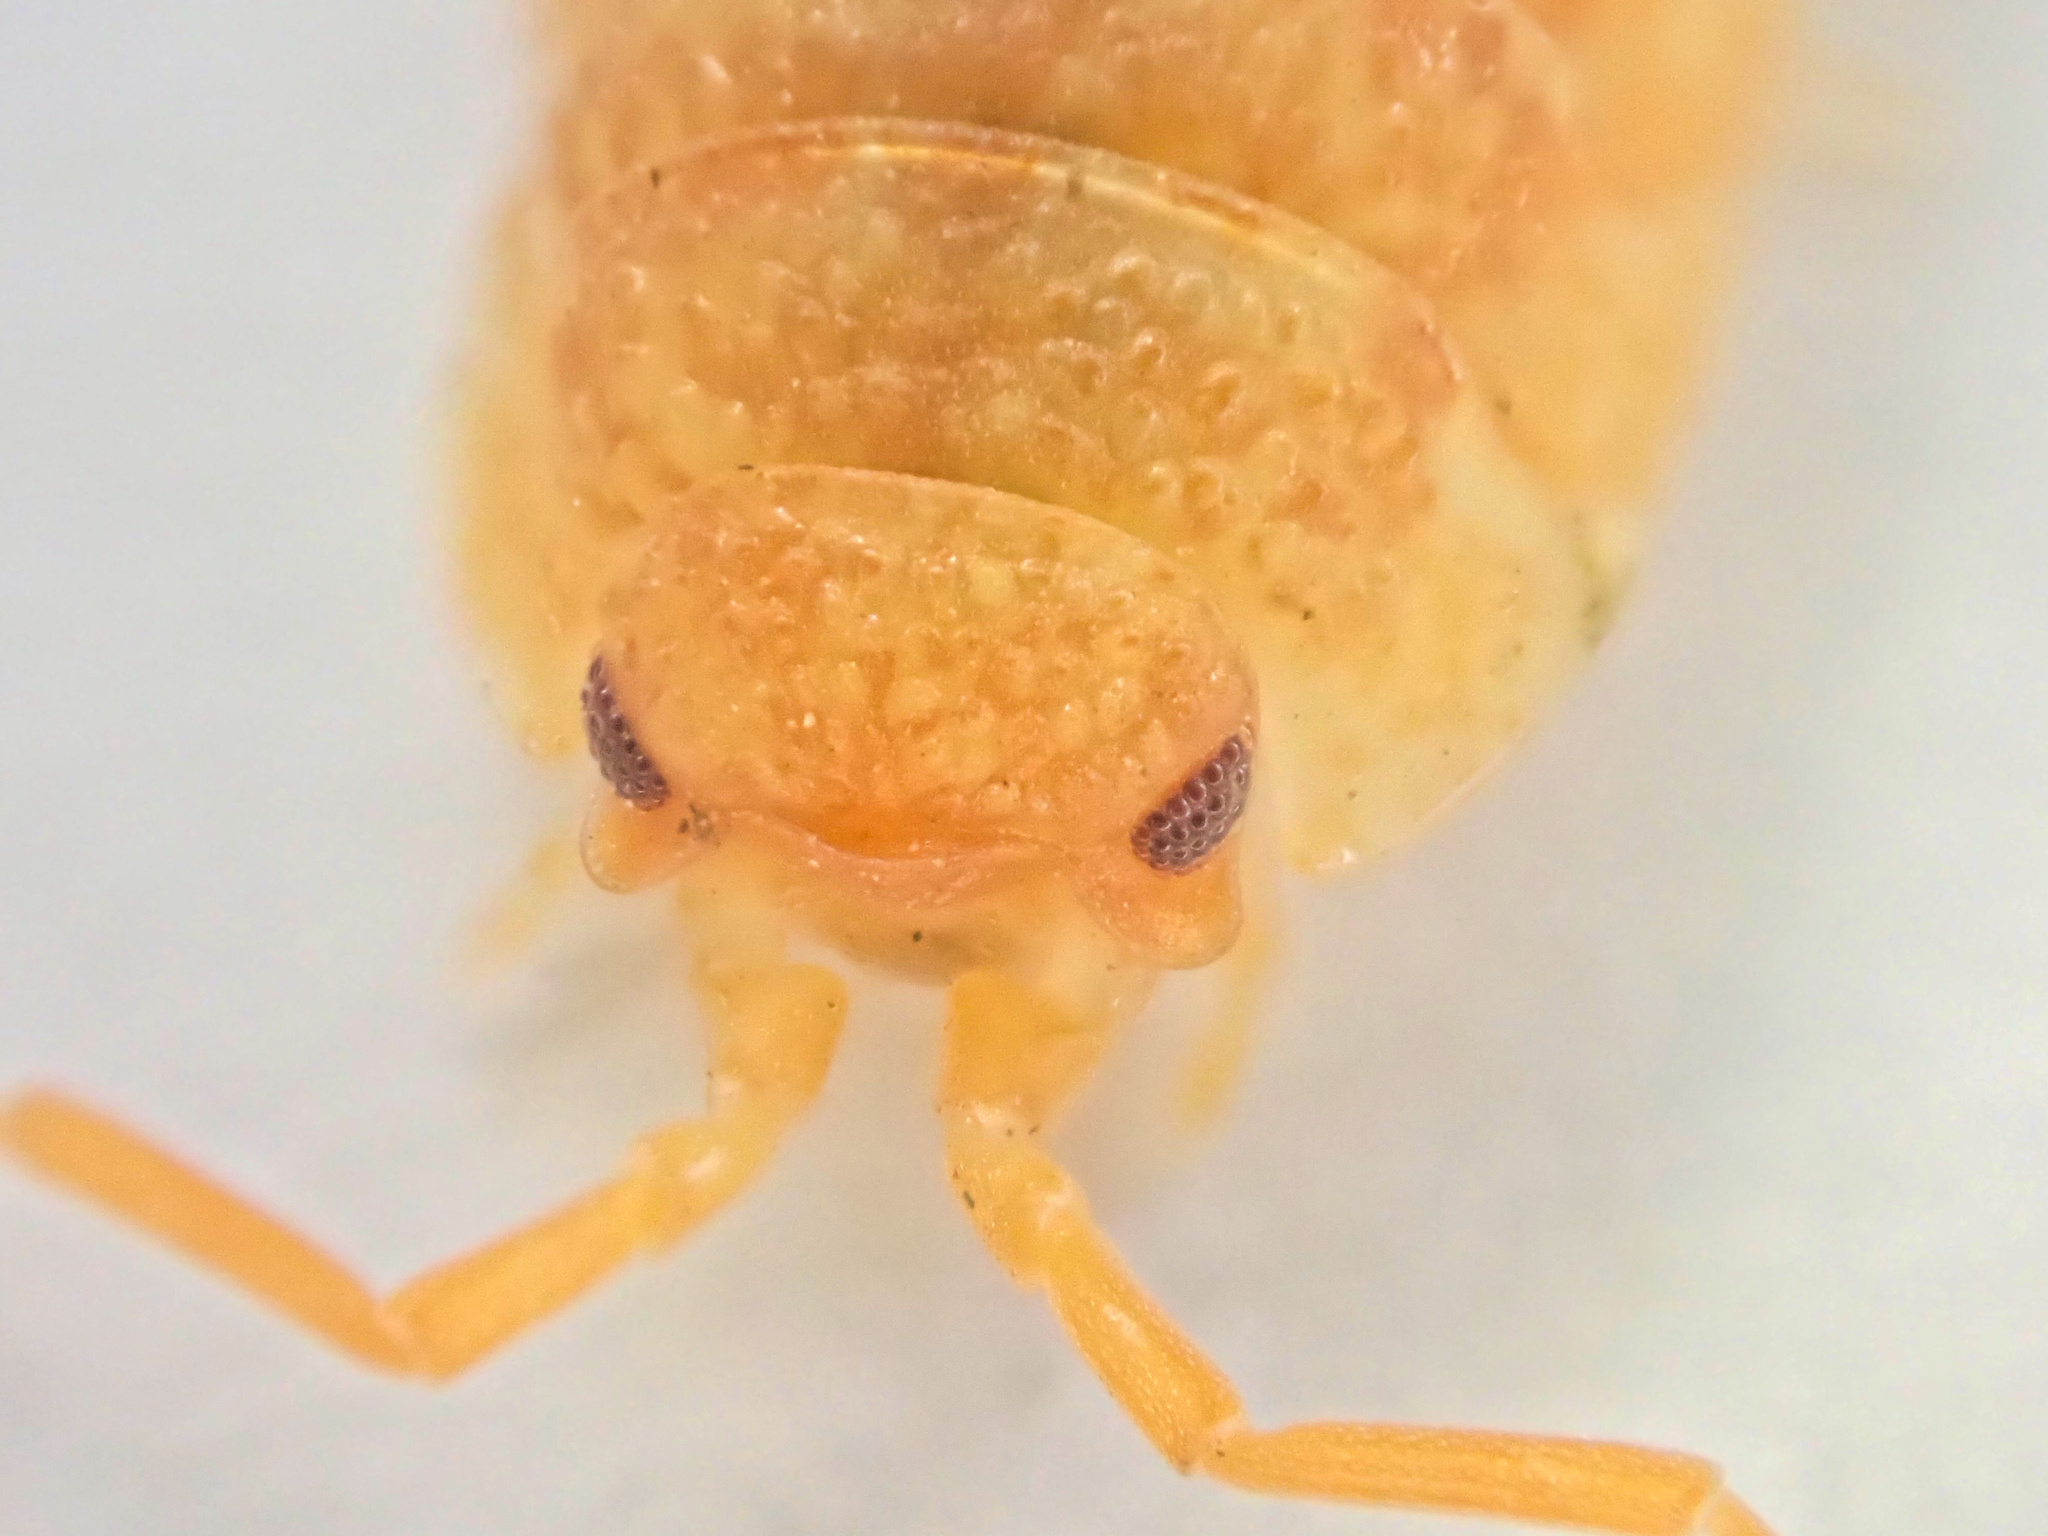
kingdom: Animalia
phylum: Arthropoda
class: Malacostraca
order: Isopoda
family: Porcellionidae
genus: Porcellio
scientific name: Porcellio scaber
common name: Common rough woodlouse
